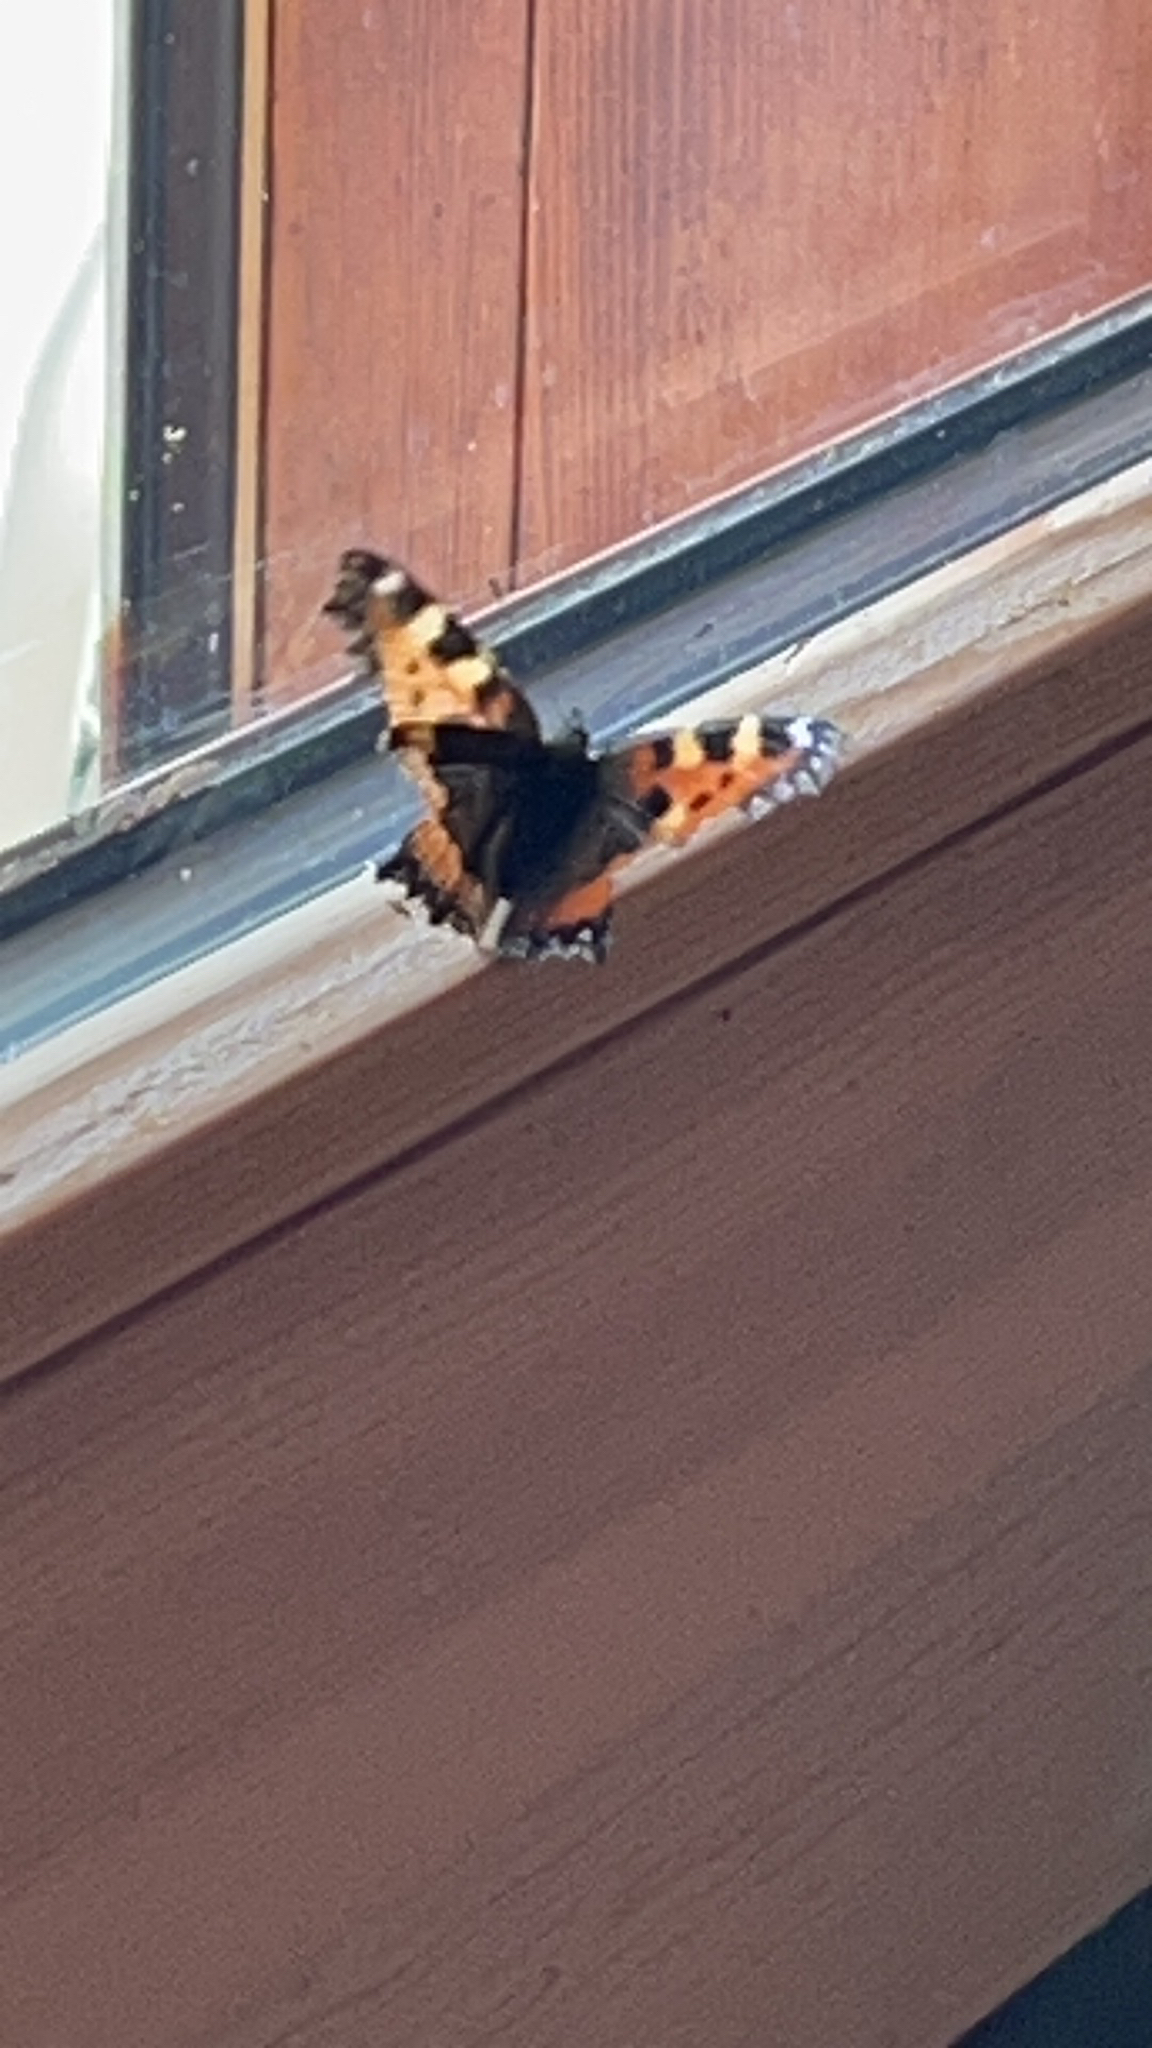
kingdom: Animalia
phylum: Arthropoda
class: Insecta
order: Lepidoptera
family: Nymphalidae
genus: Aglais
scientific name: Aglais urticae
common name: Small tortoiseshell
